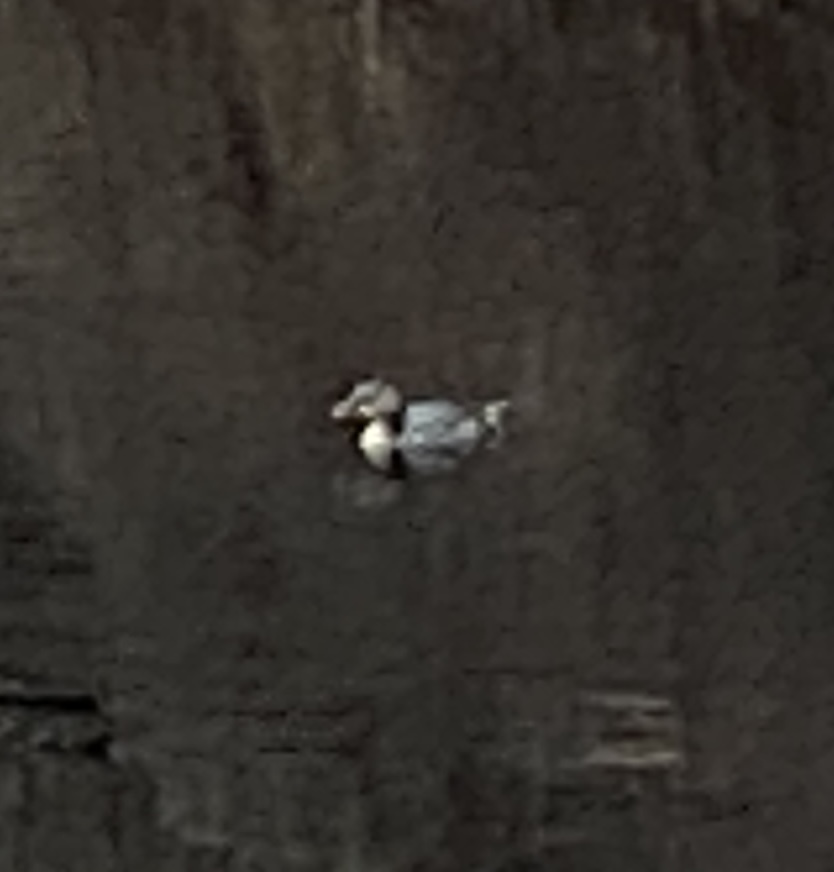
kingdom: Animalia
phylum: Chordata
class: Aves
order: Podicipediformes
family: Podicipedidae
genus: Podilymbus
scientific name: Podilymbus podiceps
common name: Pied-billed grebe
